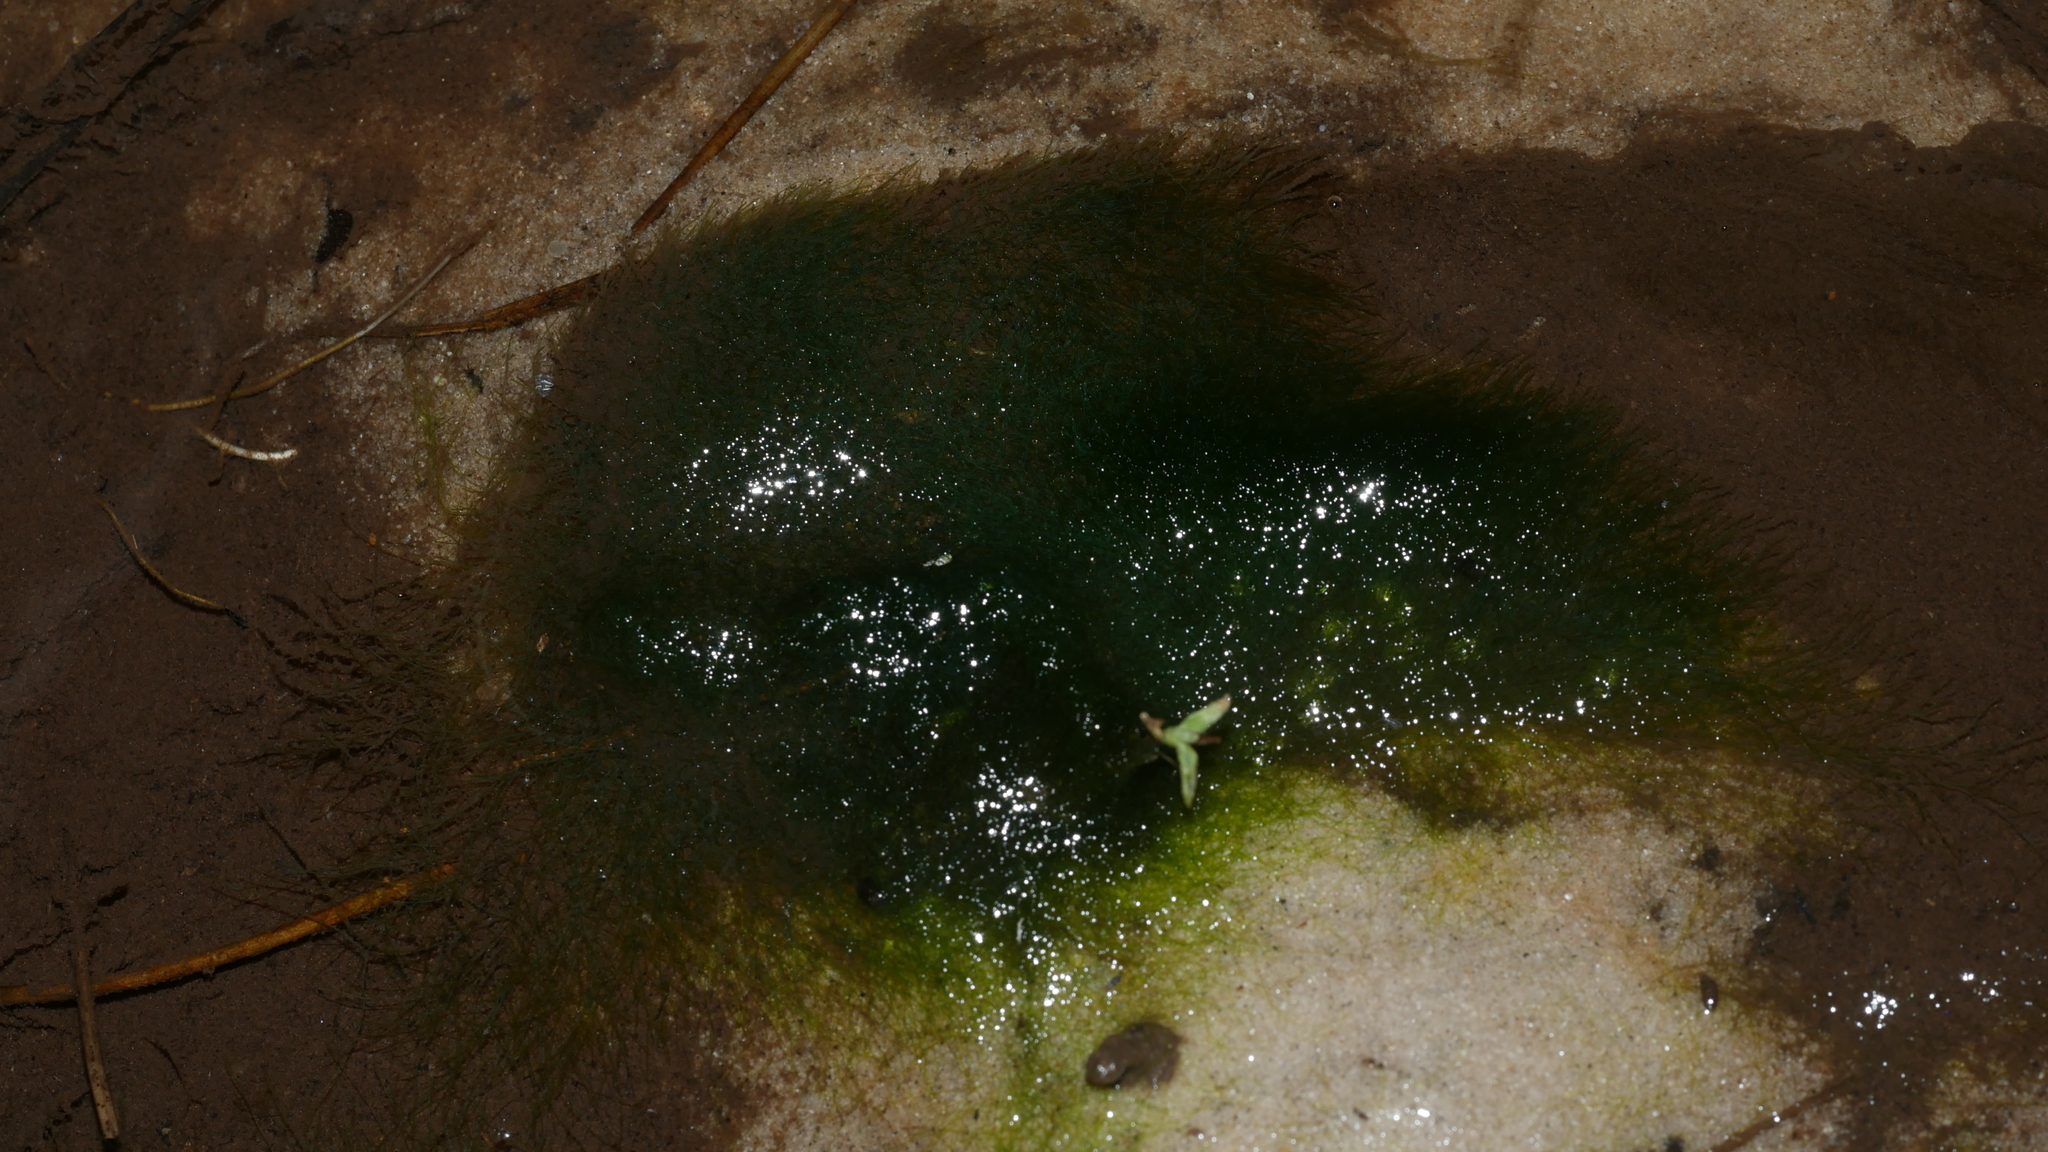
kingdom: Chromista
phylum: Ochrophyta
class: Xanthophyceae
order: Vaucheriales
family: Vaucheriaceae
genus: Vaucheria
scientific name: Vaucheria
